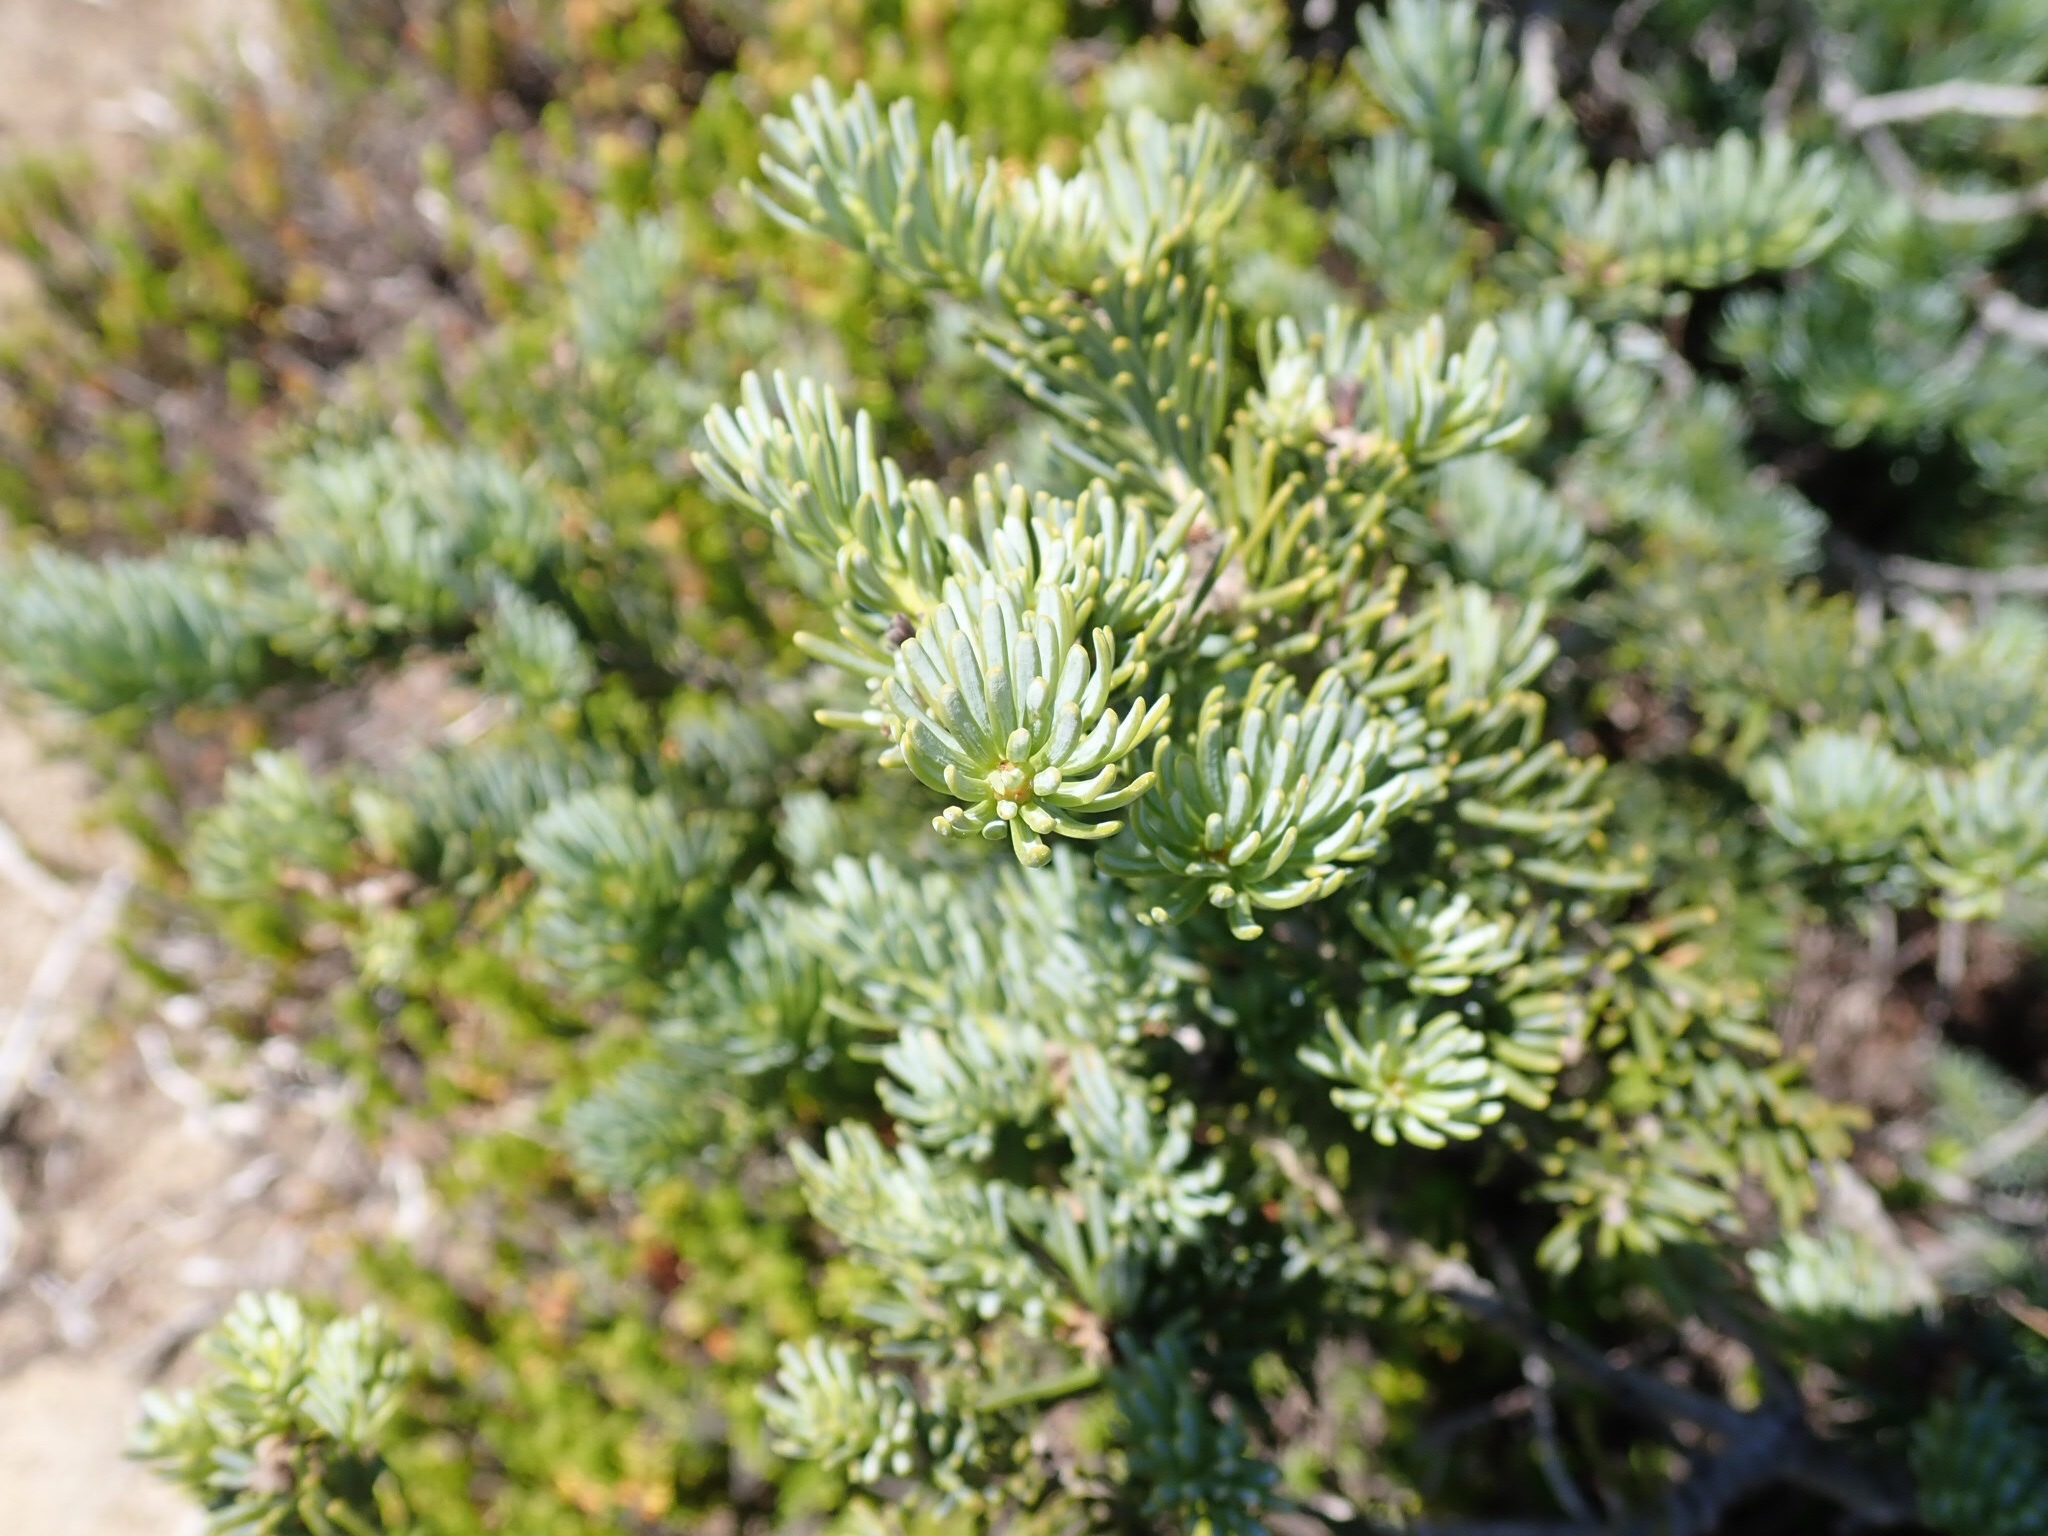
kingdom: Plantae
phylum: Tracheophyta
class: Pinopsida
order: Pinales
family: Pinaceae
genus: Abies
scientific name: Abies lasiocarpa
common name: Subalpine fir
